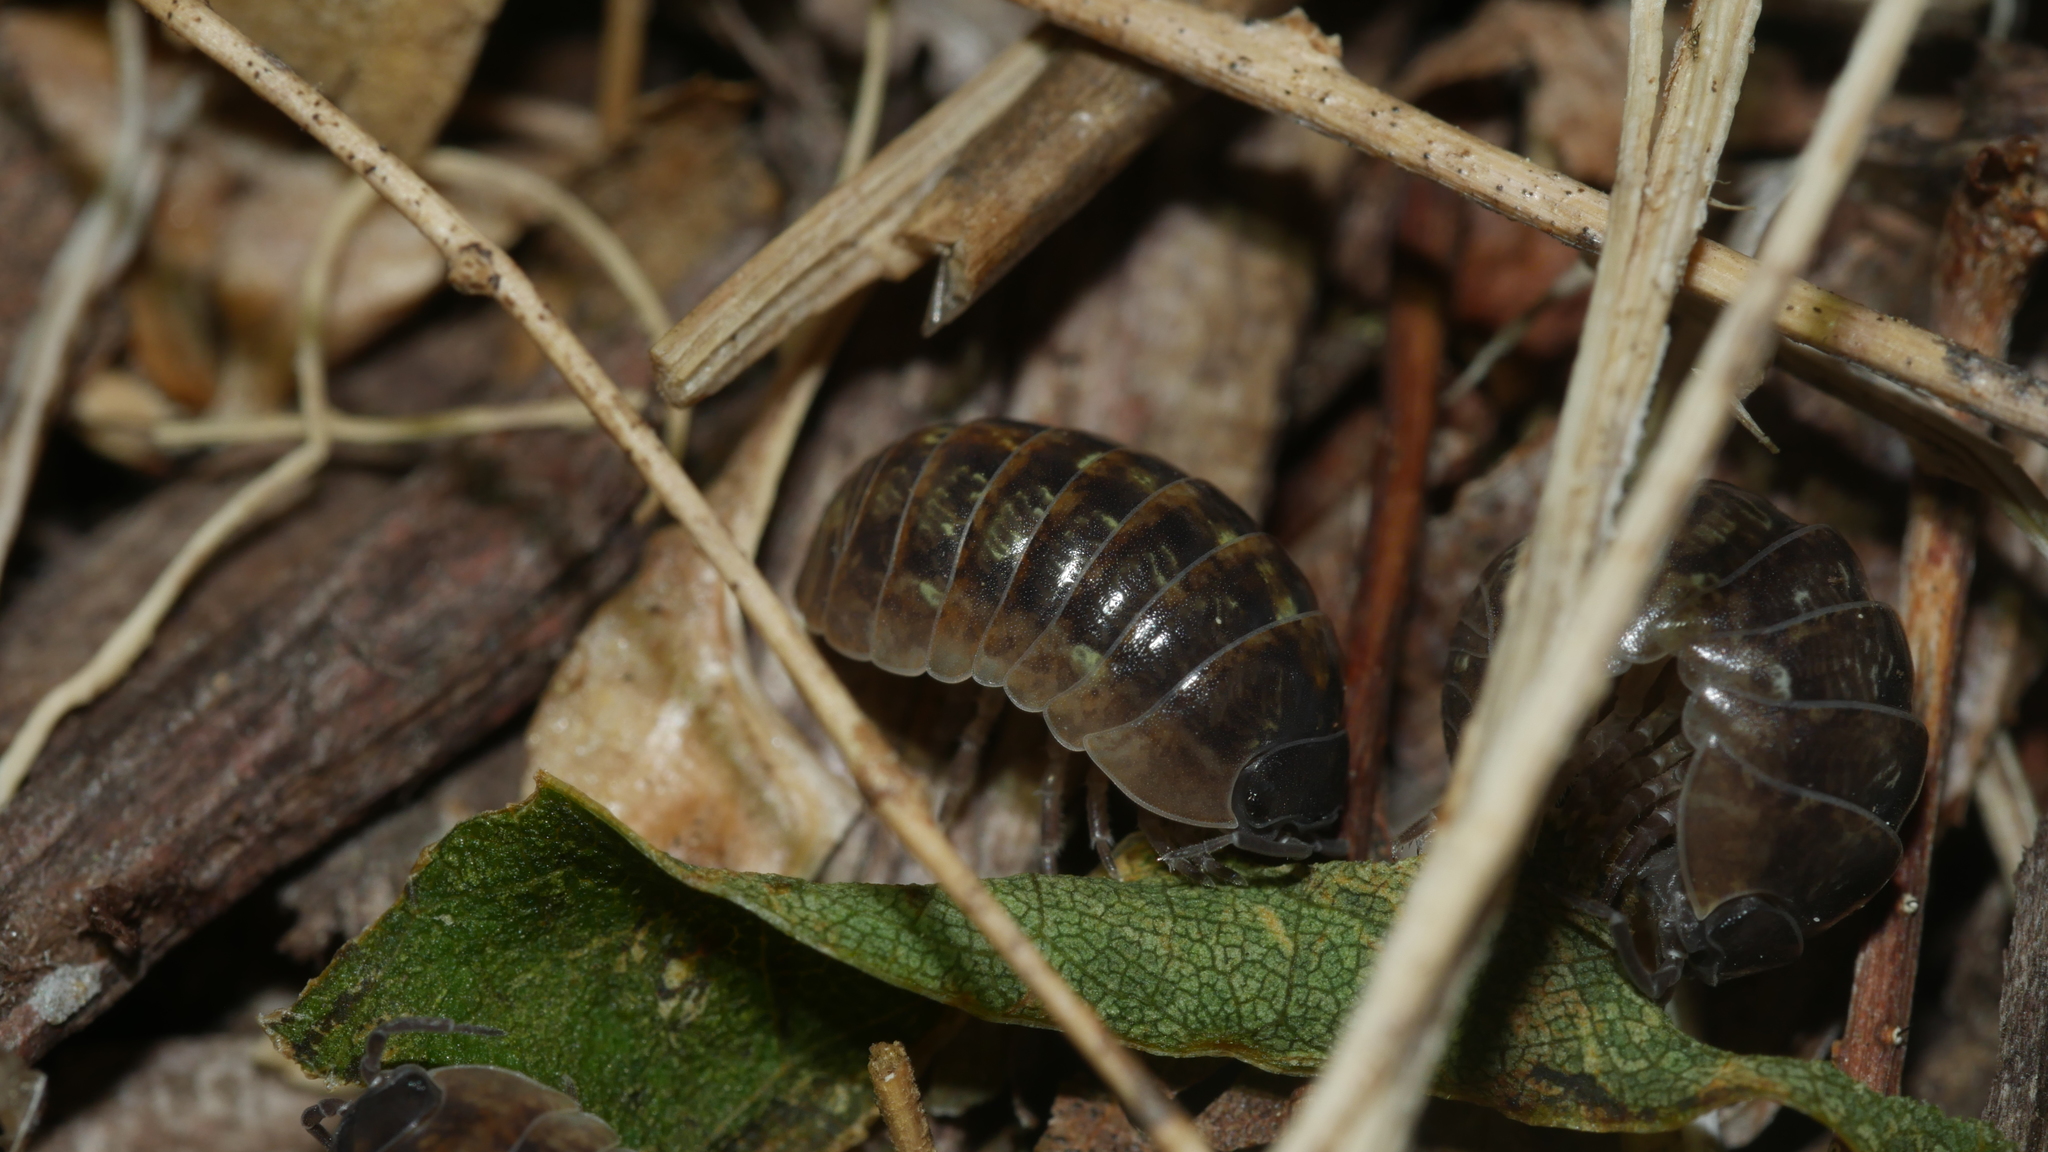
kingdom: Animalia
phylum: Arthropoda
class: Malacostraca
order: Isopoda
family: Armadillidiidae
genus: Armadillidium
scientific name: Armadillidium vulgare
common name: Common pill woodlouse
